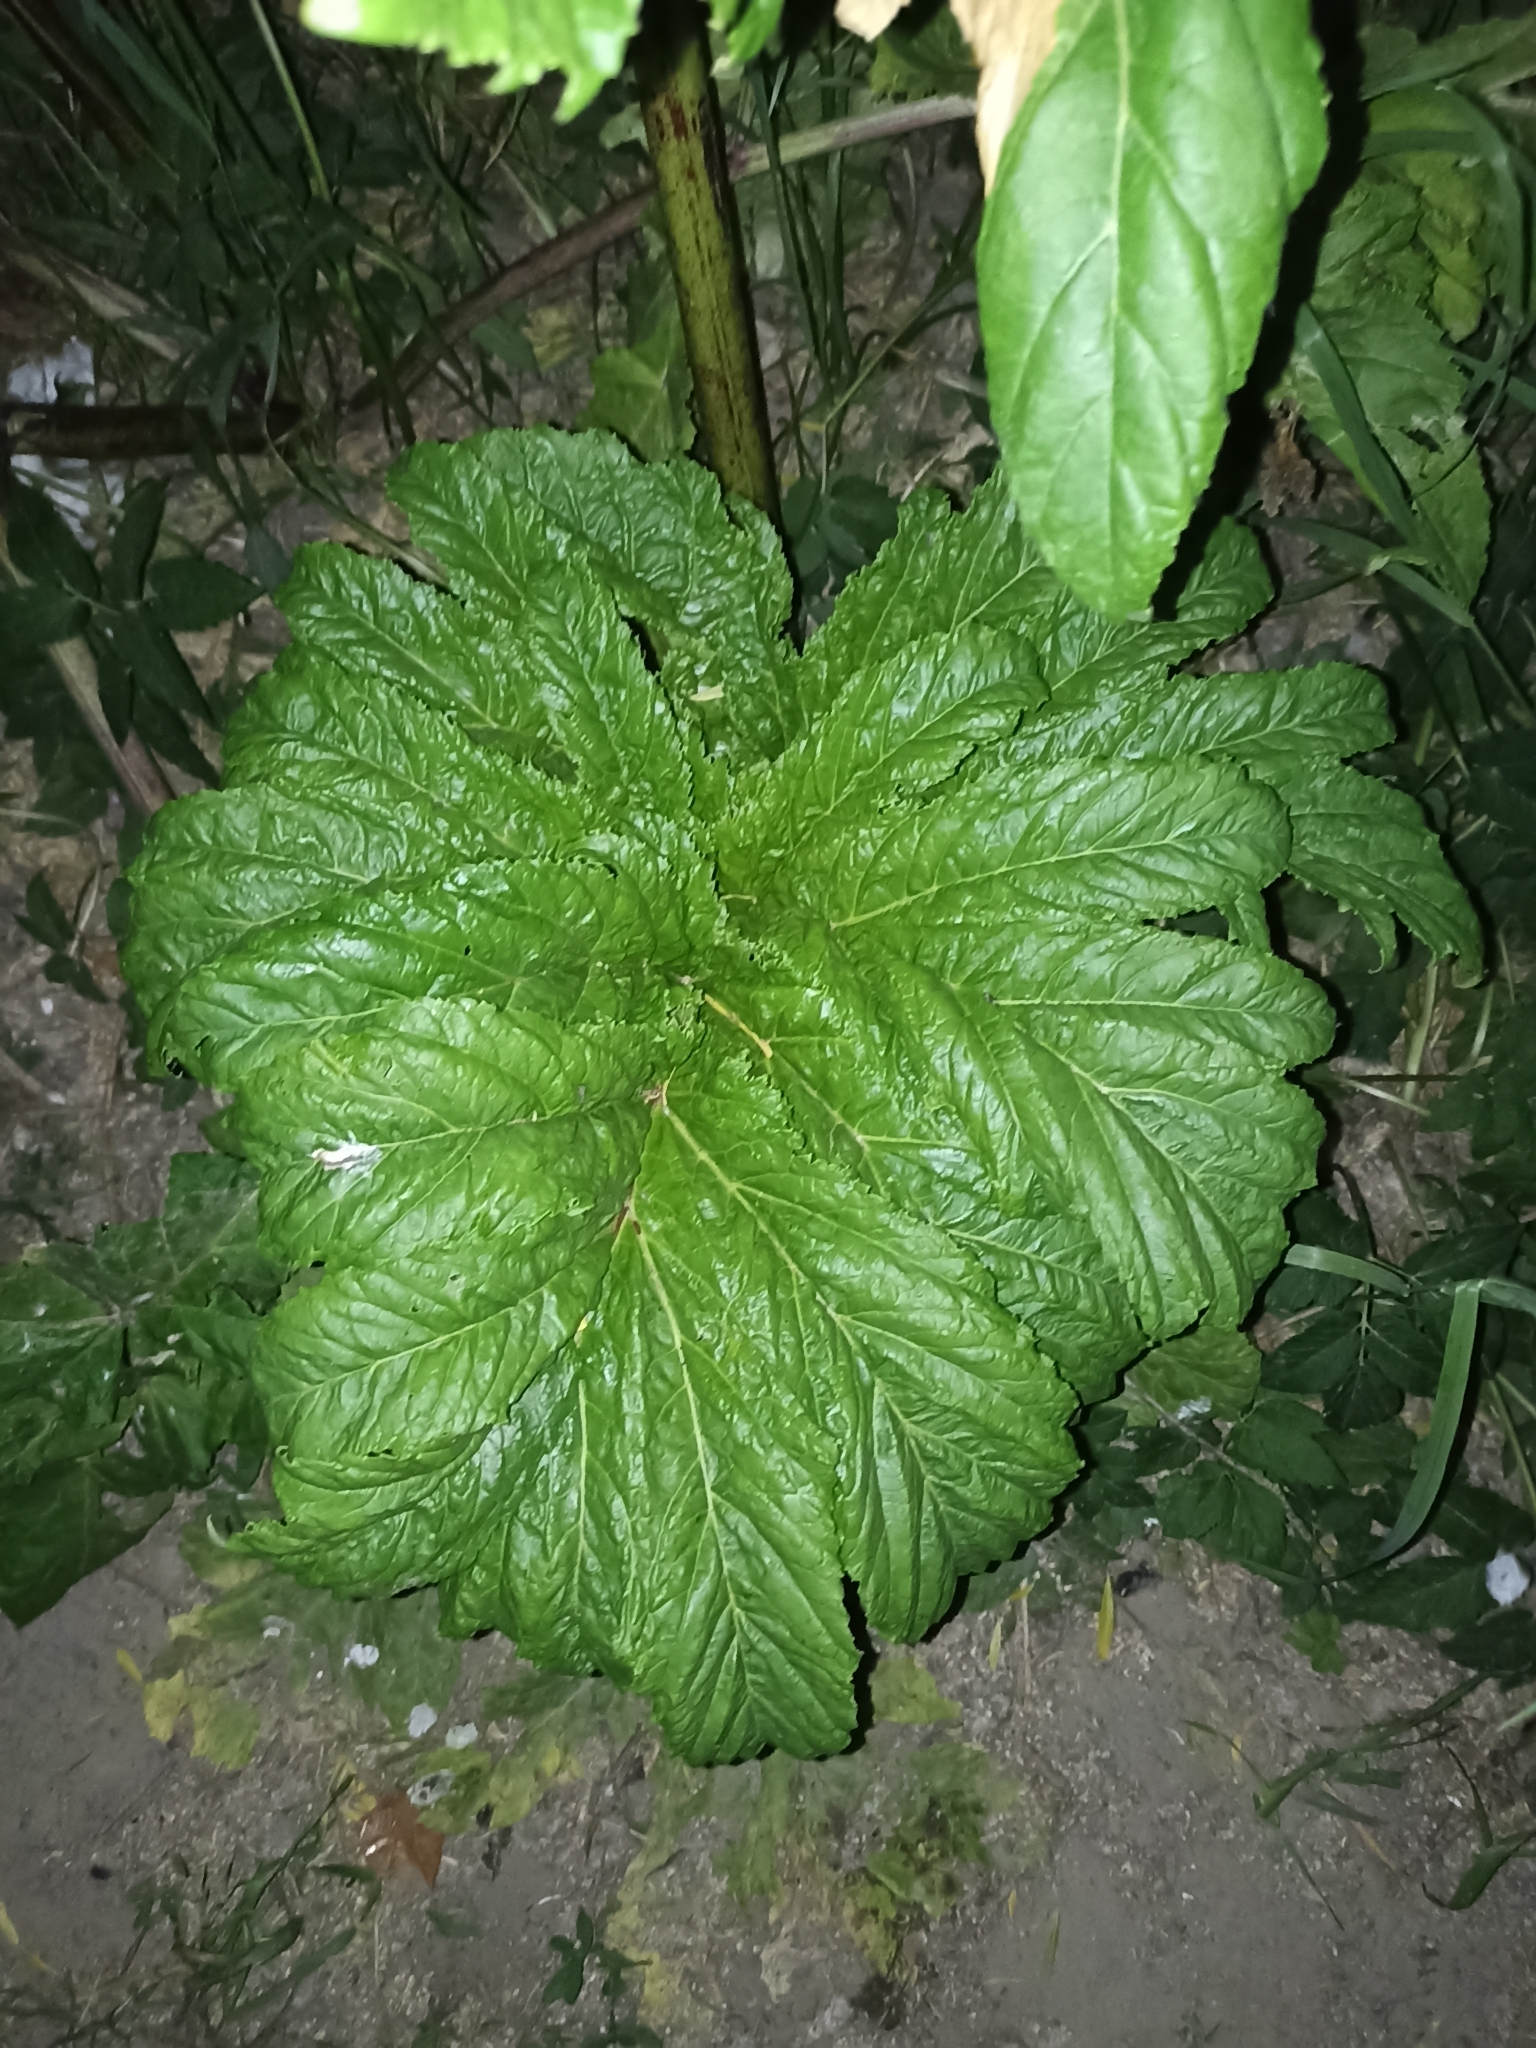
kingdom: Plantae
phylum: Tracheophyta
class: Magnoliopsida
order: Apiales
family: Apiaceae
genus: Heracleum
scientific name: Heracleum sosnowskyi
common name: Sosnowsky's hogweed
